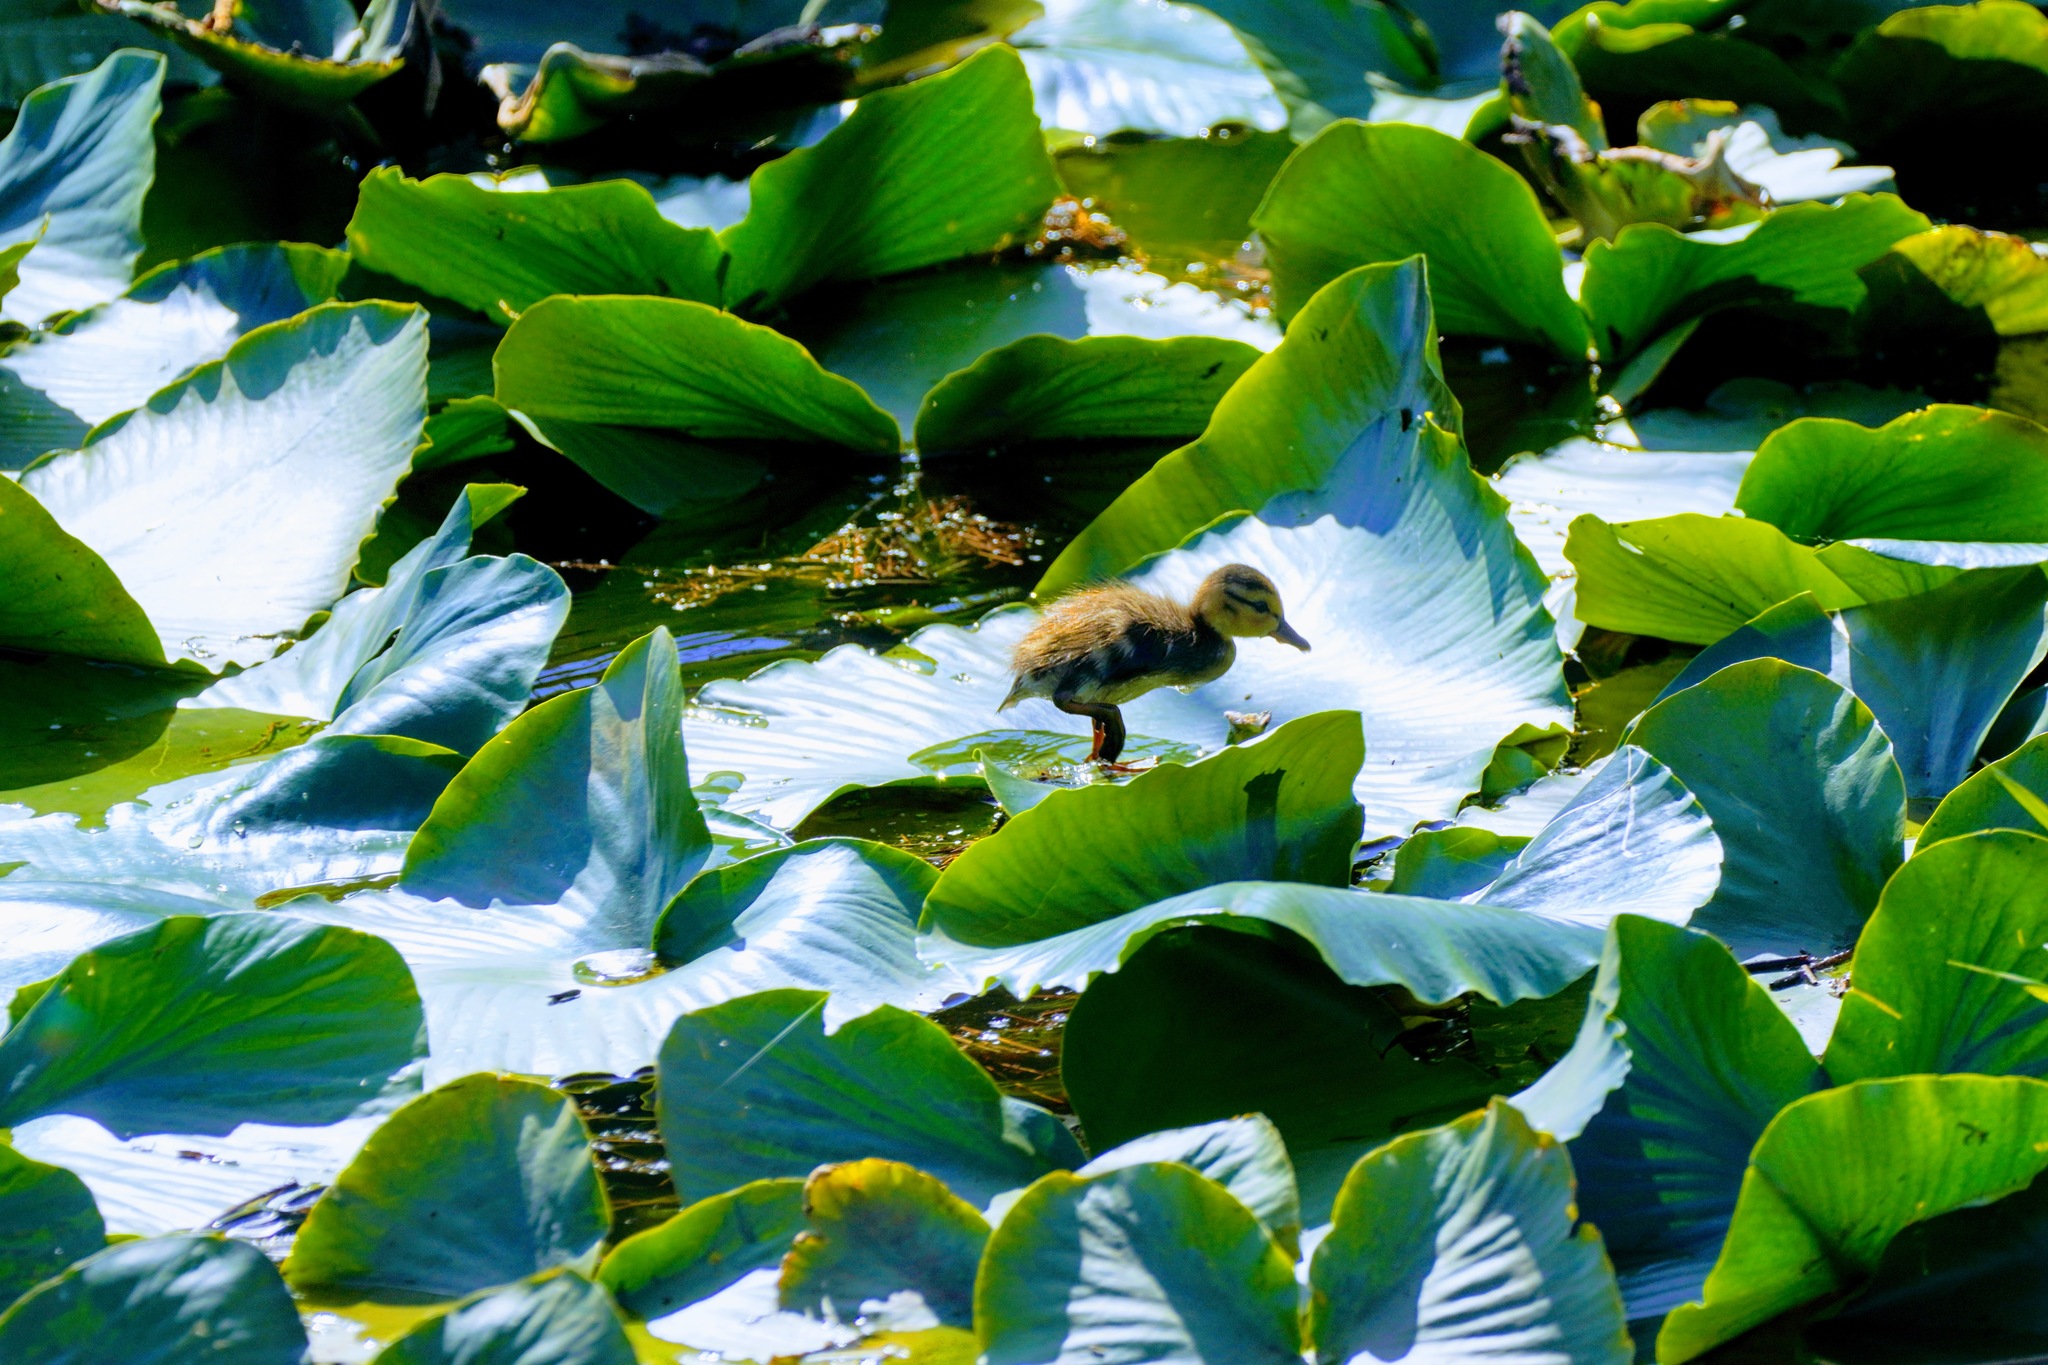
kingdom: Animalia
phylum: Chordata
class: Aves
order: Anseriformes
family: Anatidae
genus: Aix
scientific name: Aix sponsa
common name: Wood duck
